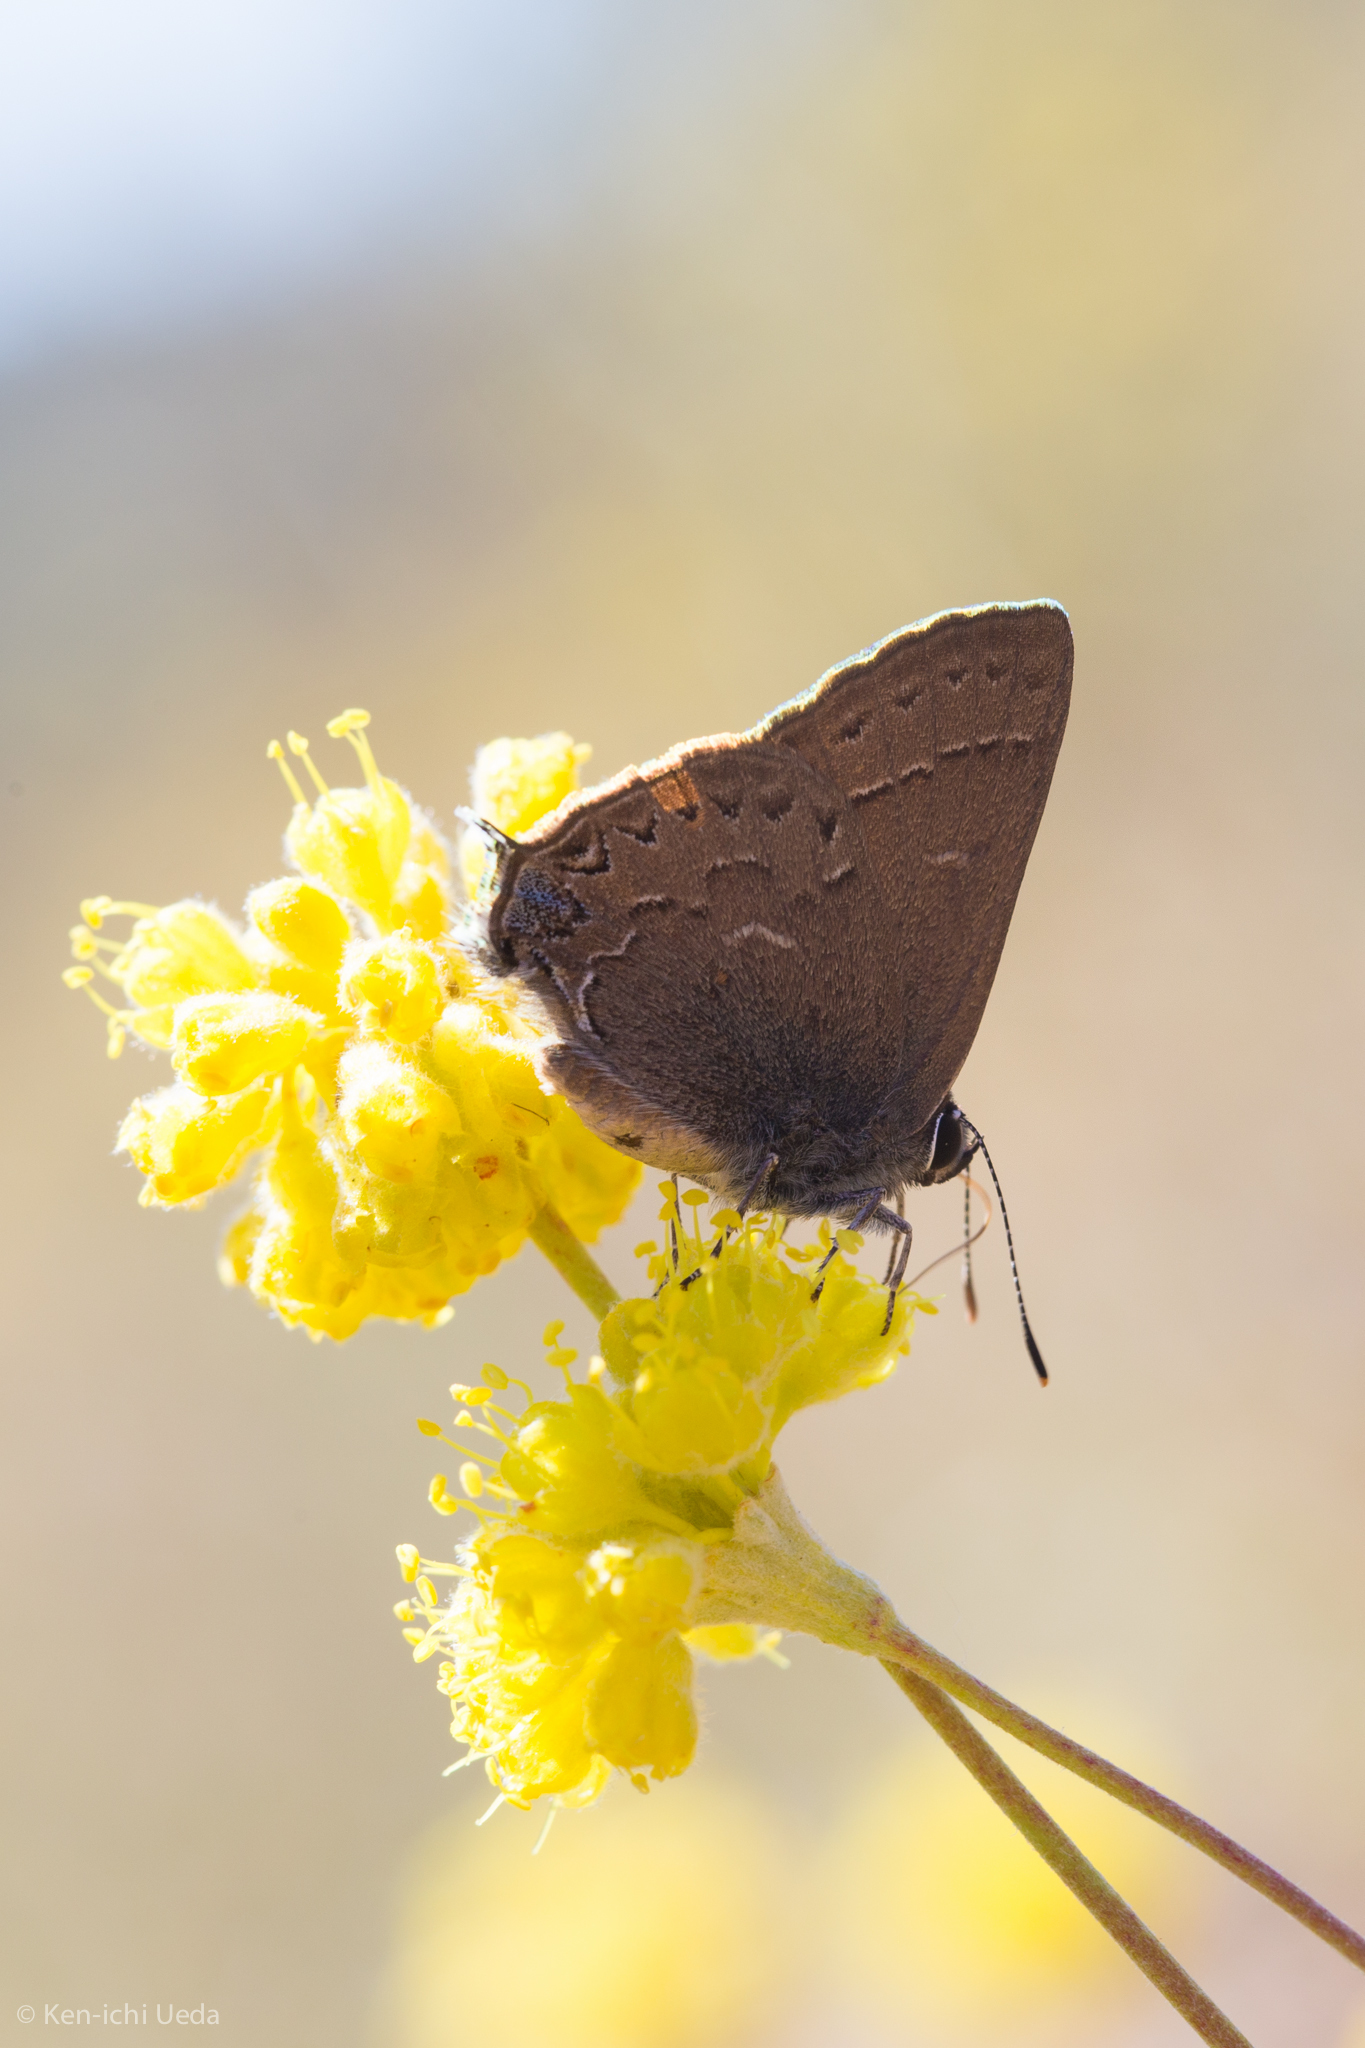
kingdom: Animalia
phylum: Arthropoda
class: Insecta
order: Lepidoptera
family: Lycaenidae
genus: Strymon
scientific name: Strymon saepium
